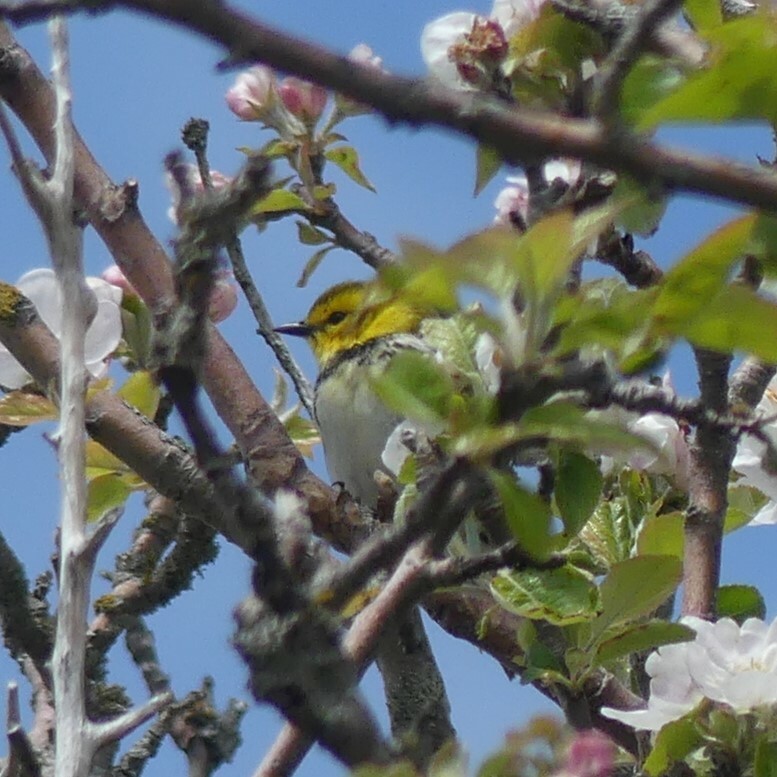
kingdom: Animalia
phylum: Chordata
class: Aves
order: Passeriformes
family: Parulidae
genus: Setophaga
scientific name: Setophaga virens
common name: Black-throated green warbler
